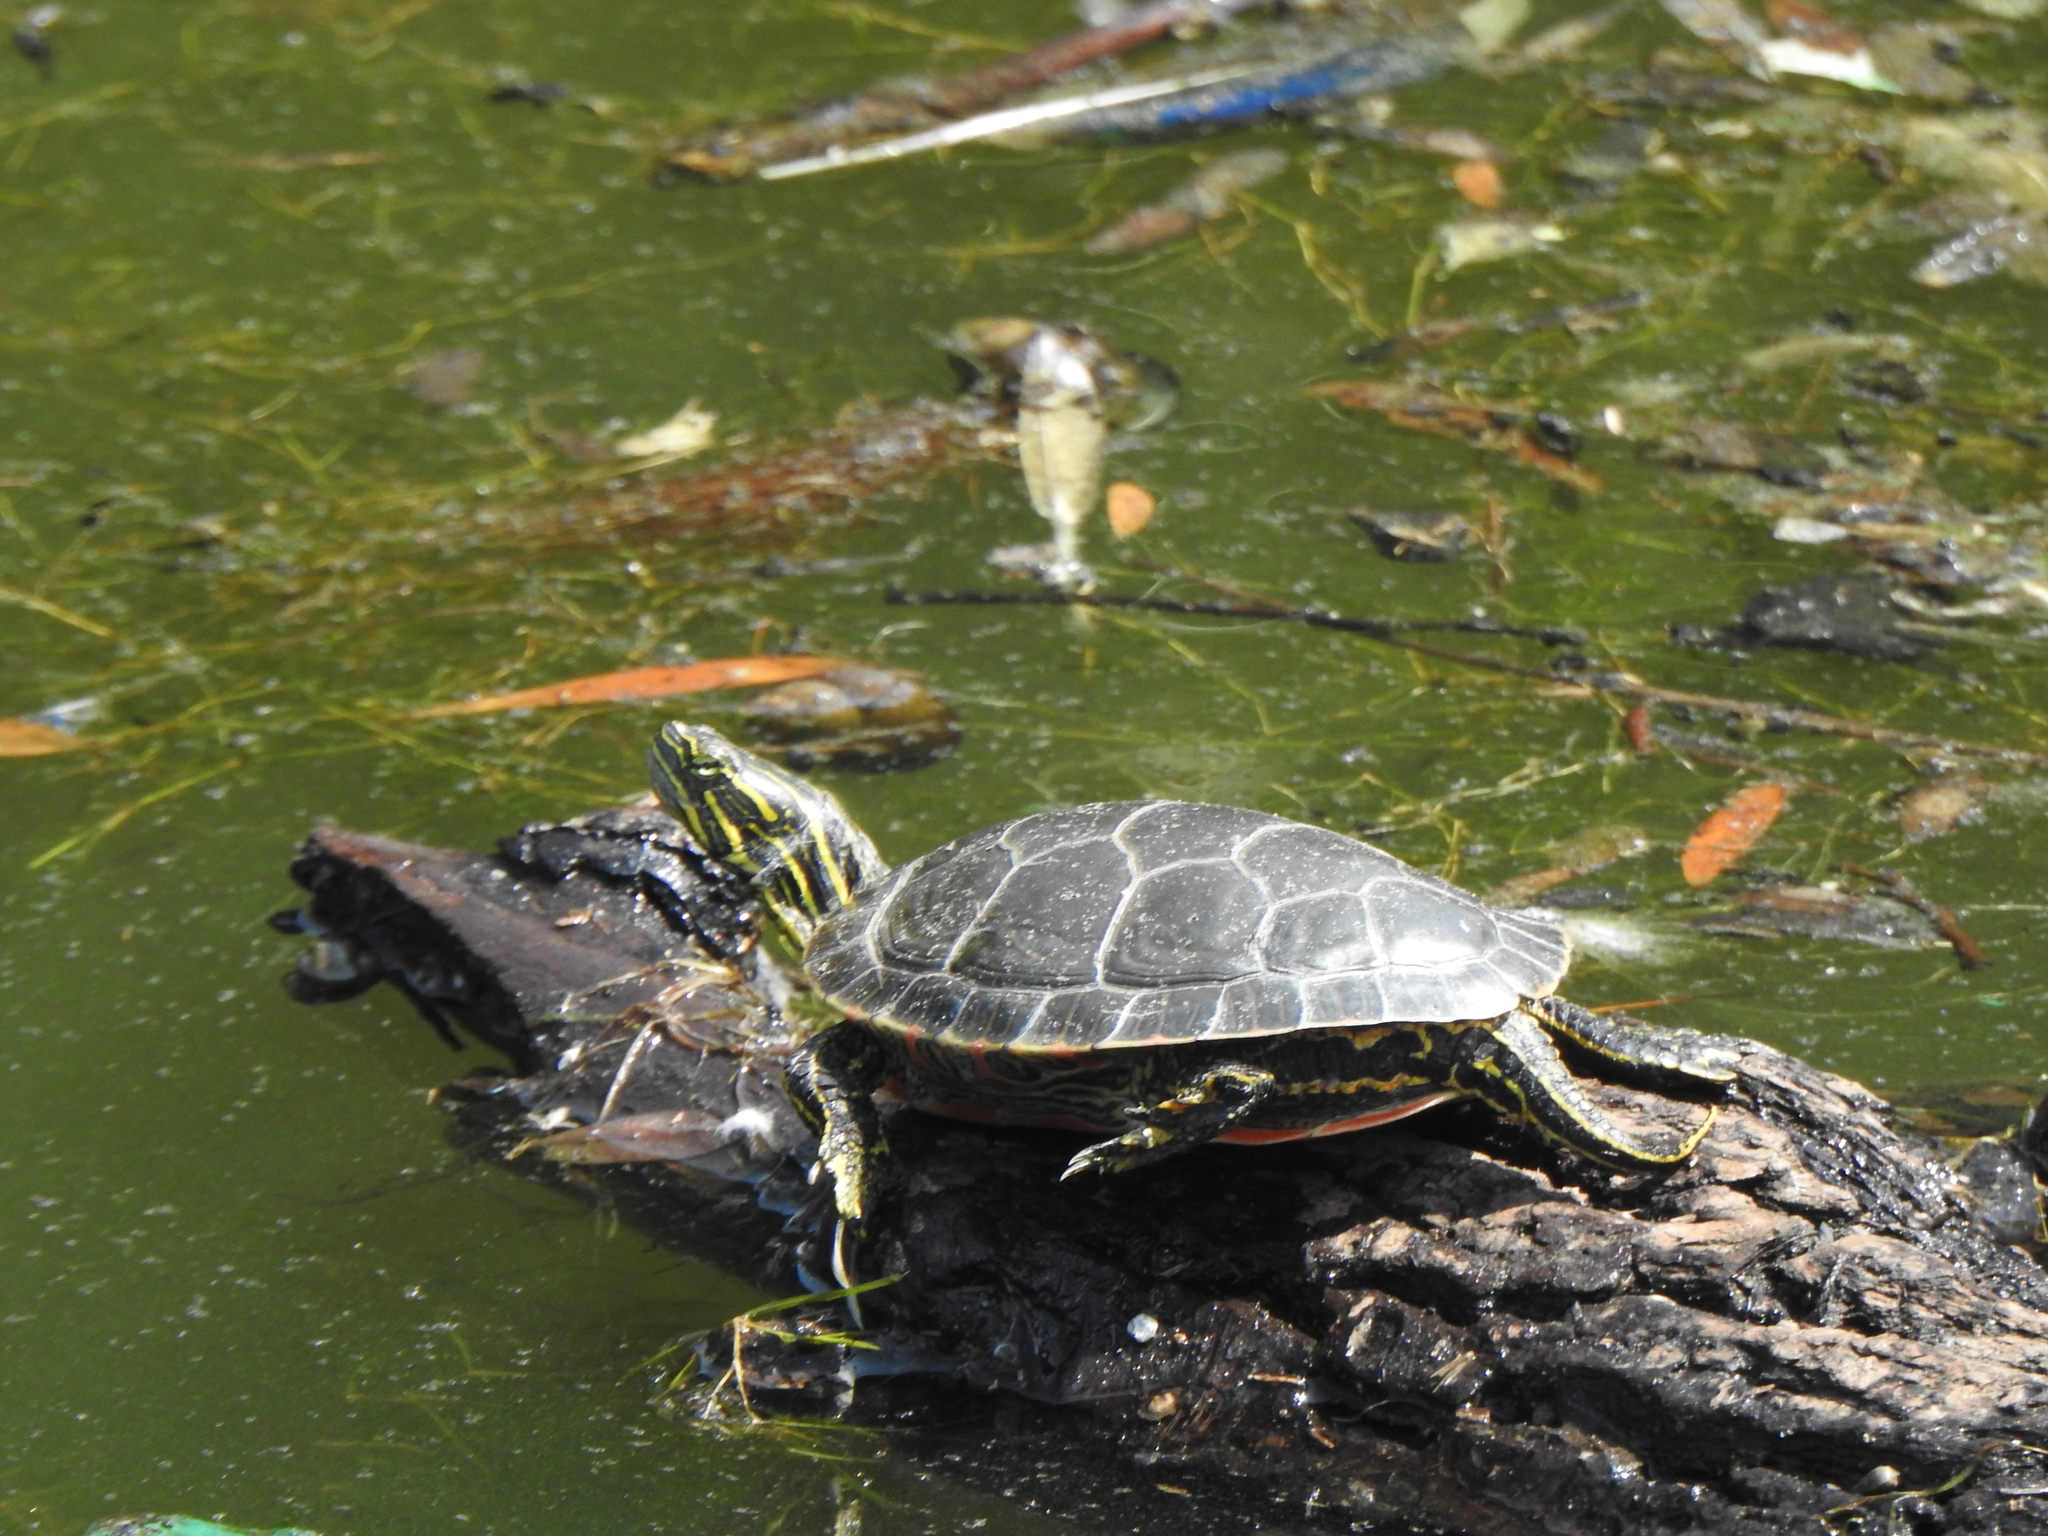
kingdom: Animalia
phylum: Chordata
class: Testudines
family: Emydidae
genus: Chrysemys
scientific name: Chrysemys picta
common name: Painted turtle
